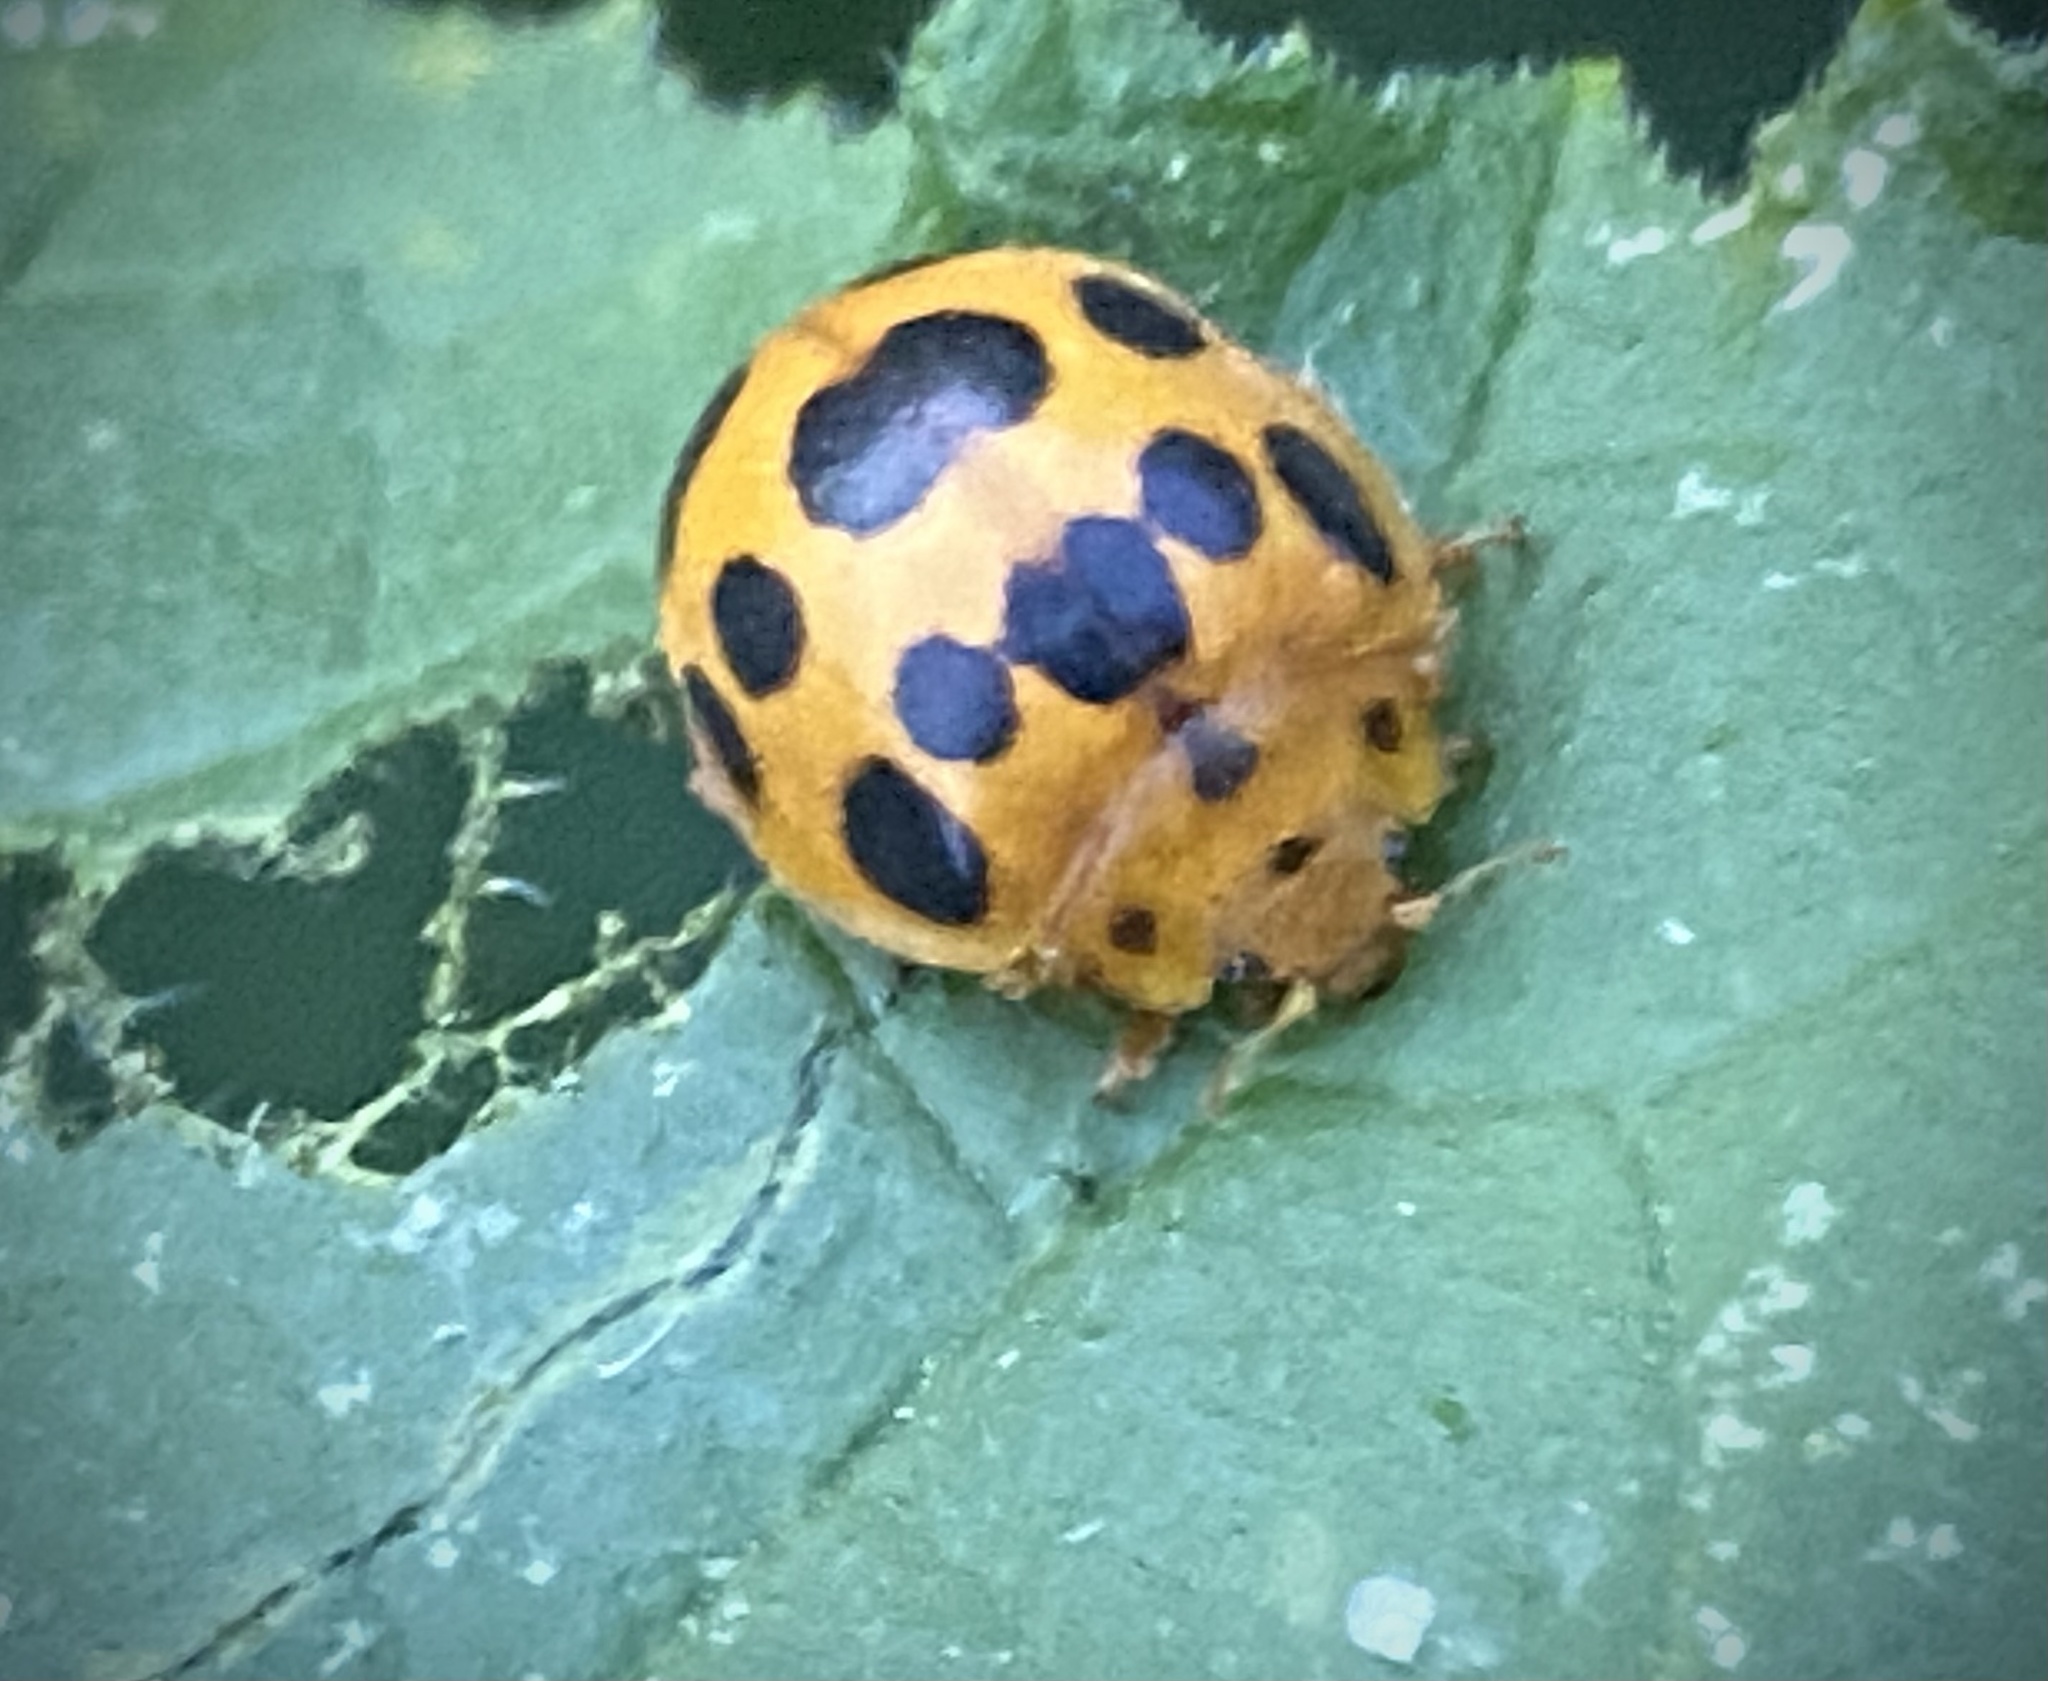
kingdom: Animalia
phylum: Arthropoda
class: Insecta
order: Coleoptera
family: Coccinellidae
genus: Epilachna
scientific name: Epilachna borealis
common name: Squash beetle
